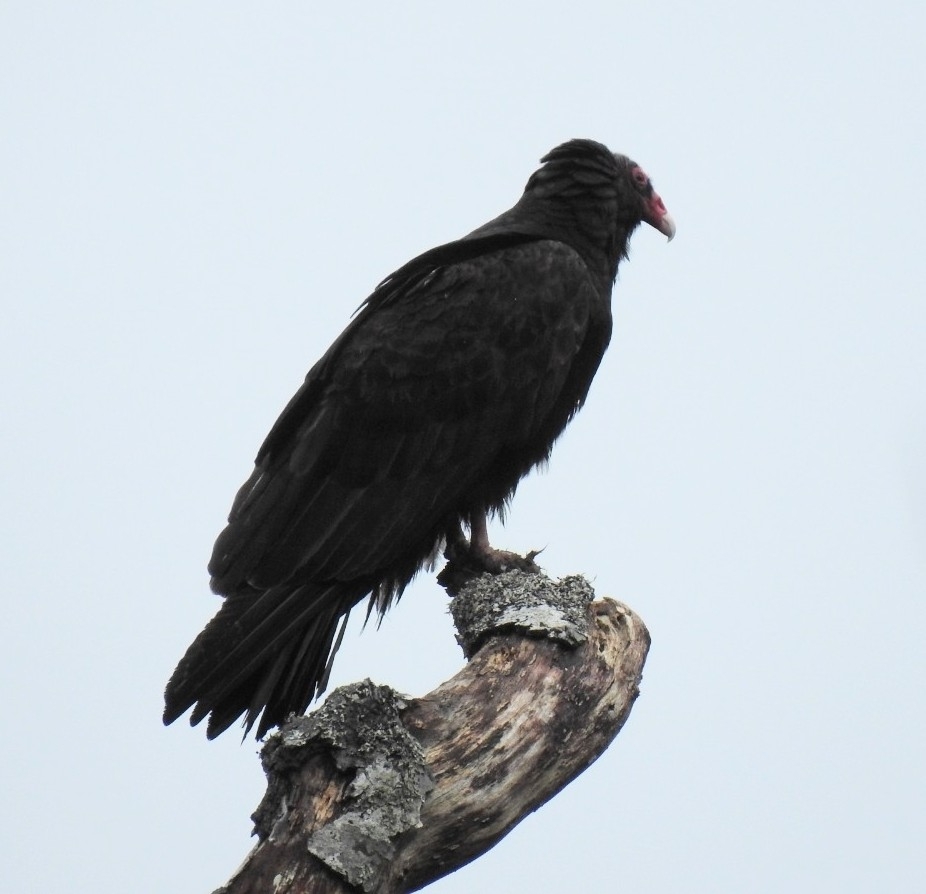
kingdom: Animalia
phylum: Chordata
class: Aves
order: Accipitriformes
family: Cathartidae
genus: Cathartes
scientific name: Cathartes aura
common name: Turkey vulture
